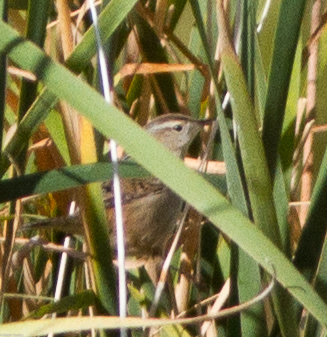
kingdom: Animalia
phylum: Chordata
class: Aves
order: Passeriformes
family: Troglodytidae
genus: Cistothorus
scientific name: Cistothorus palustris
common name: Marsh wren
